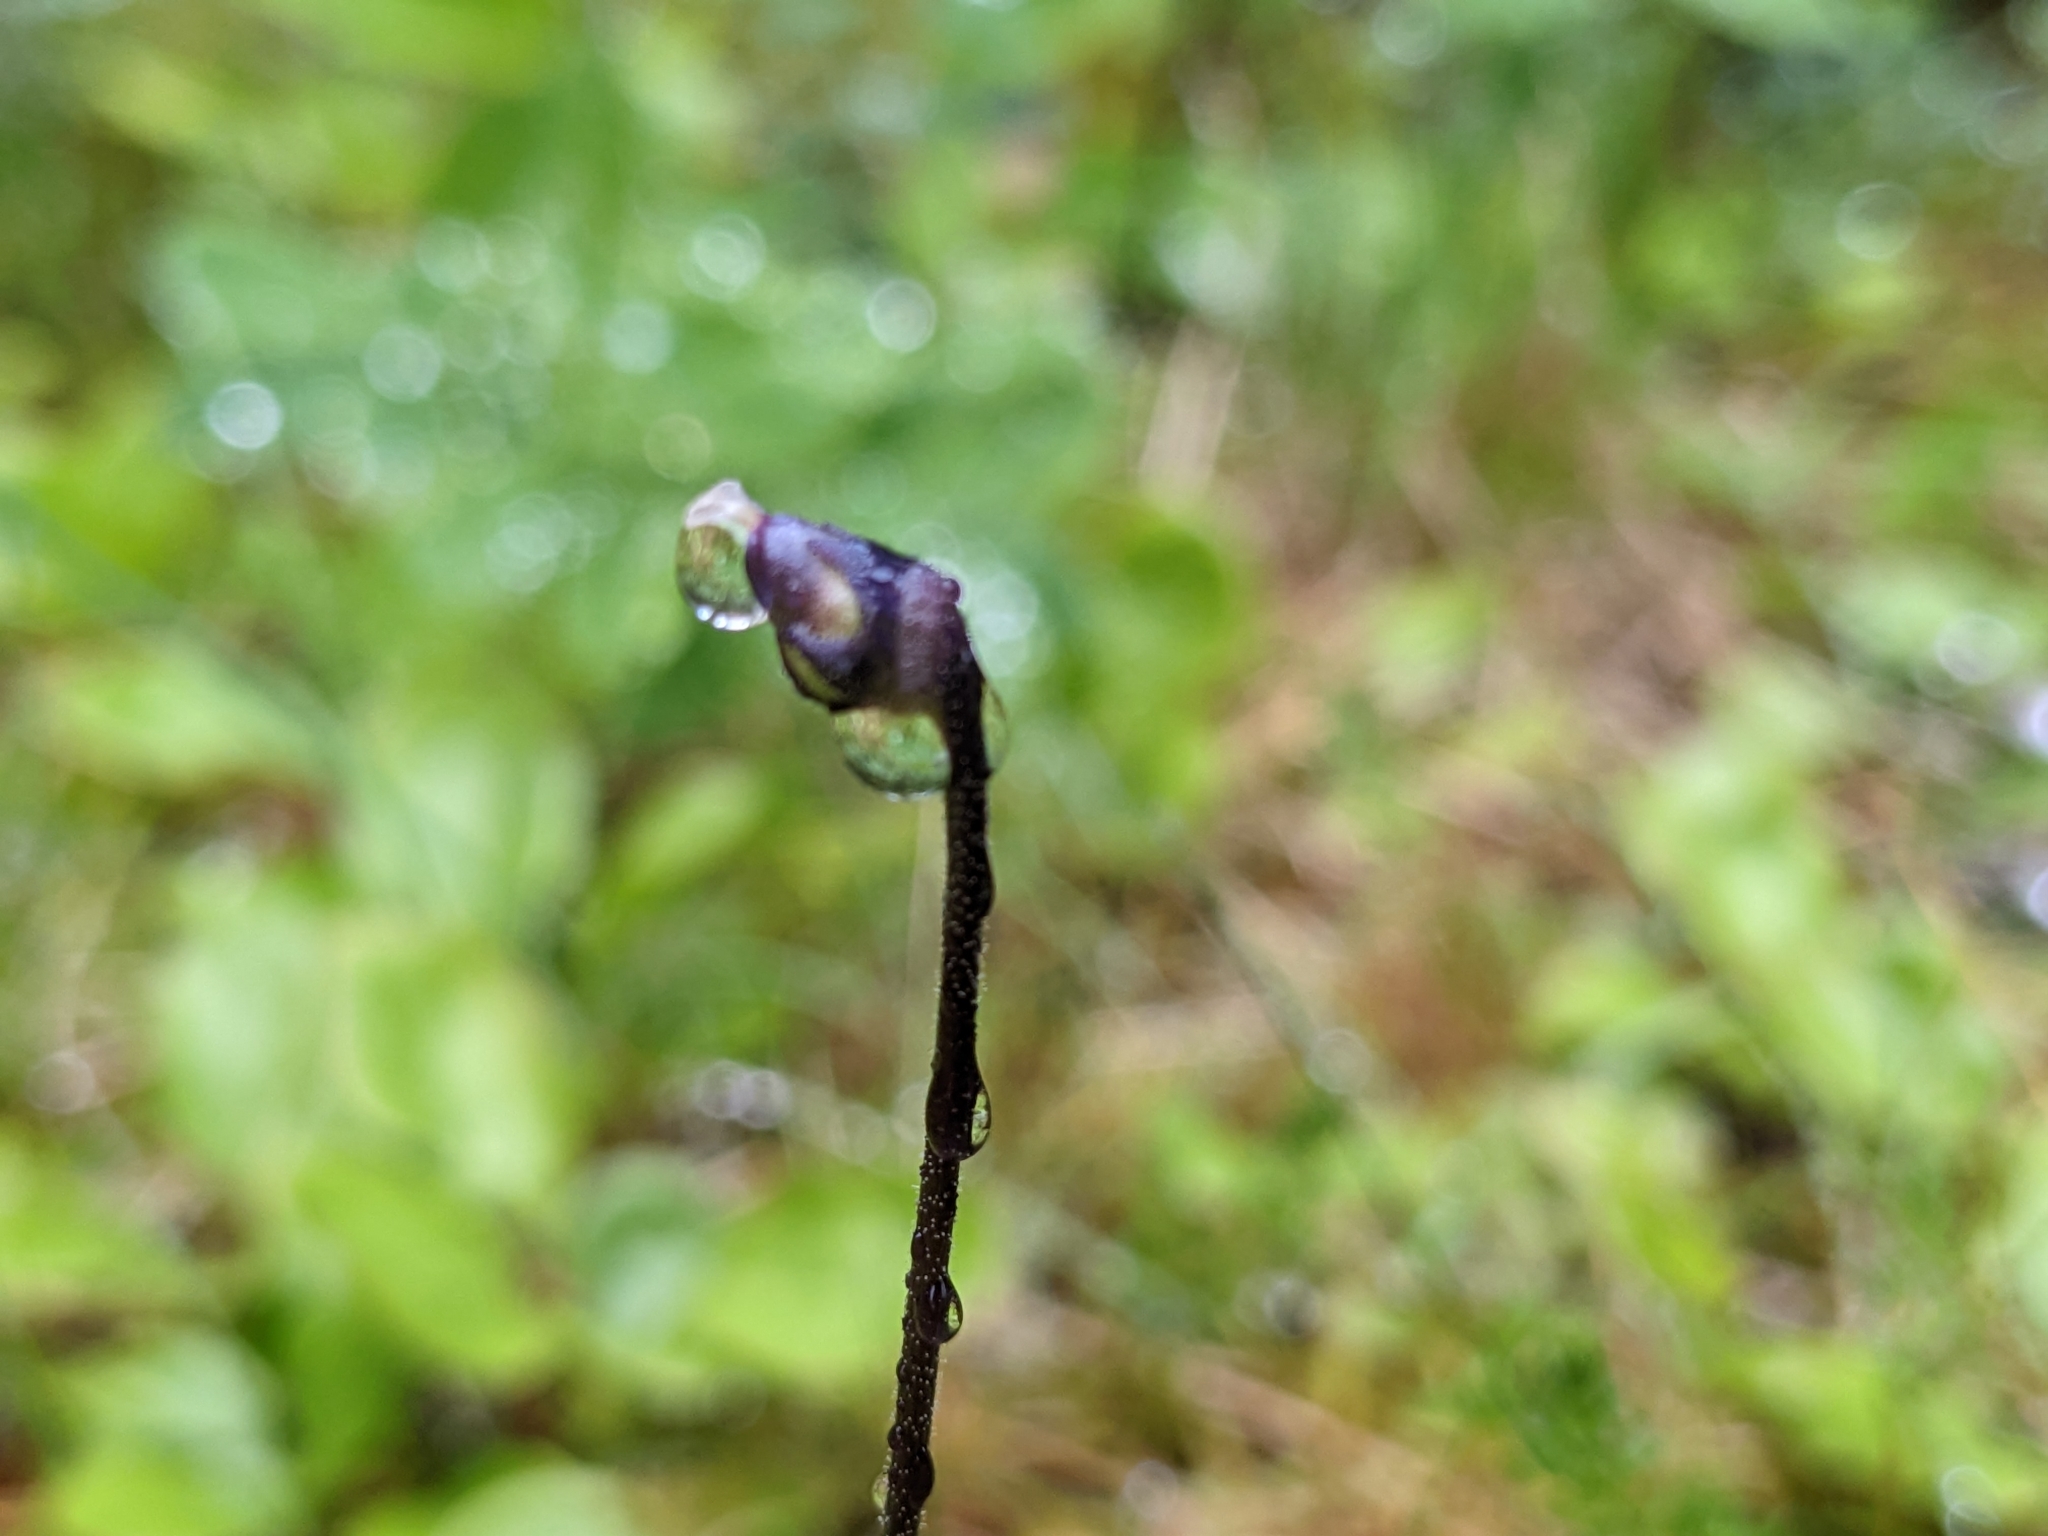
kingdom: Plantae
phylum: Tracheophyta
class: Magnoliopsida
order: Lamiales
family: Lentibulariaceae
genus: Pinguicula
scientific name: Pinguicula vulgaris
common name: Common butterwort
